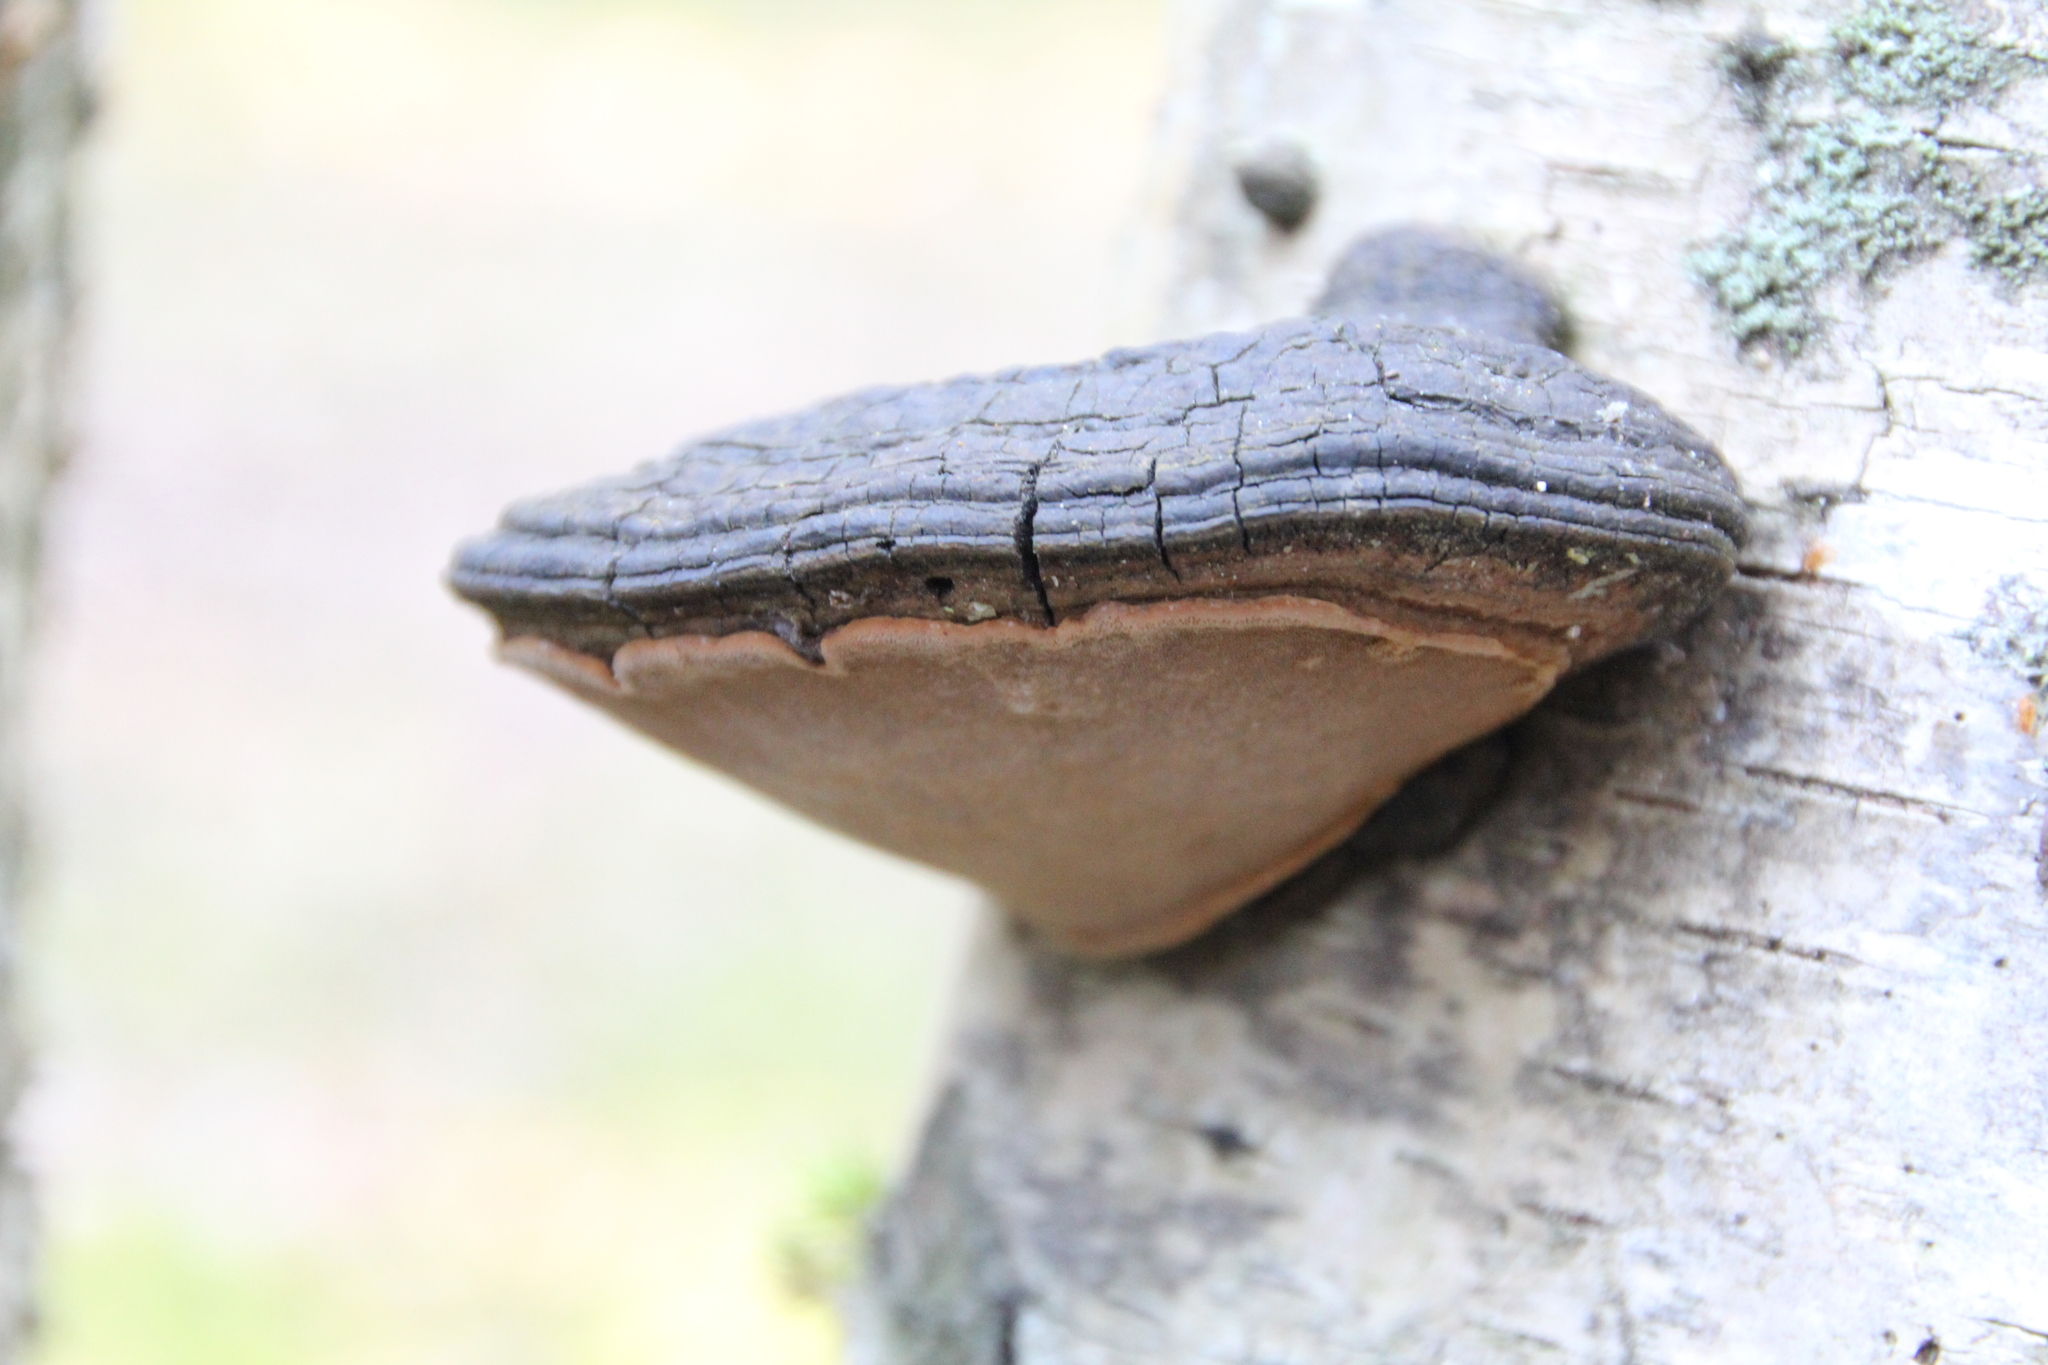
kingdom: Fungi
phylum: Basidiomycota
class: Agaricomycetes
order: Hymenochaetales
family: Hymenochaetaceae
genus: Phellinus
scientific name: Phellinus igniarius
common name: Willow bracket
